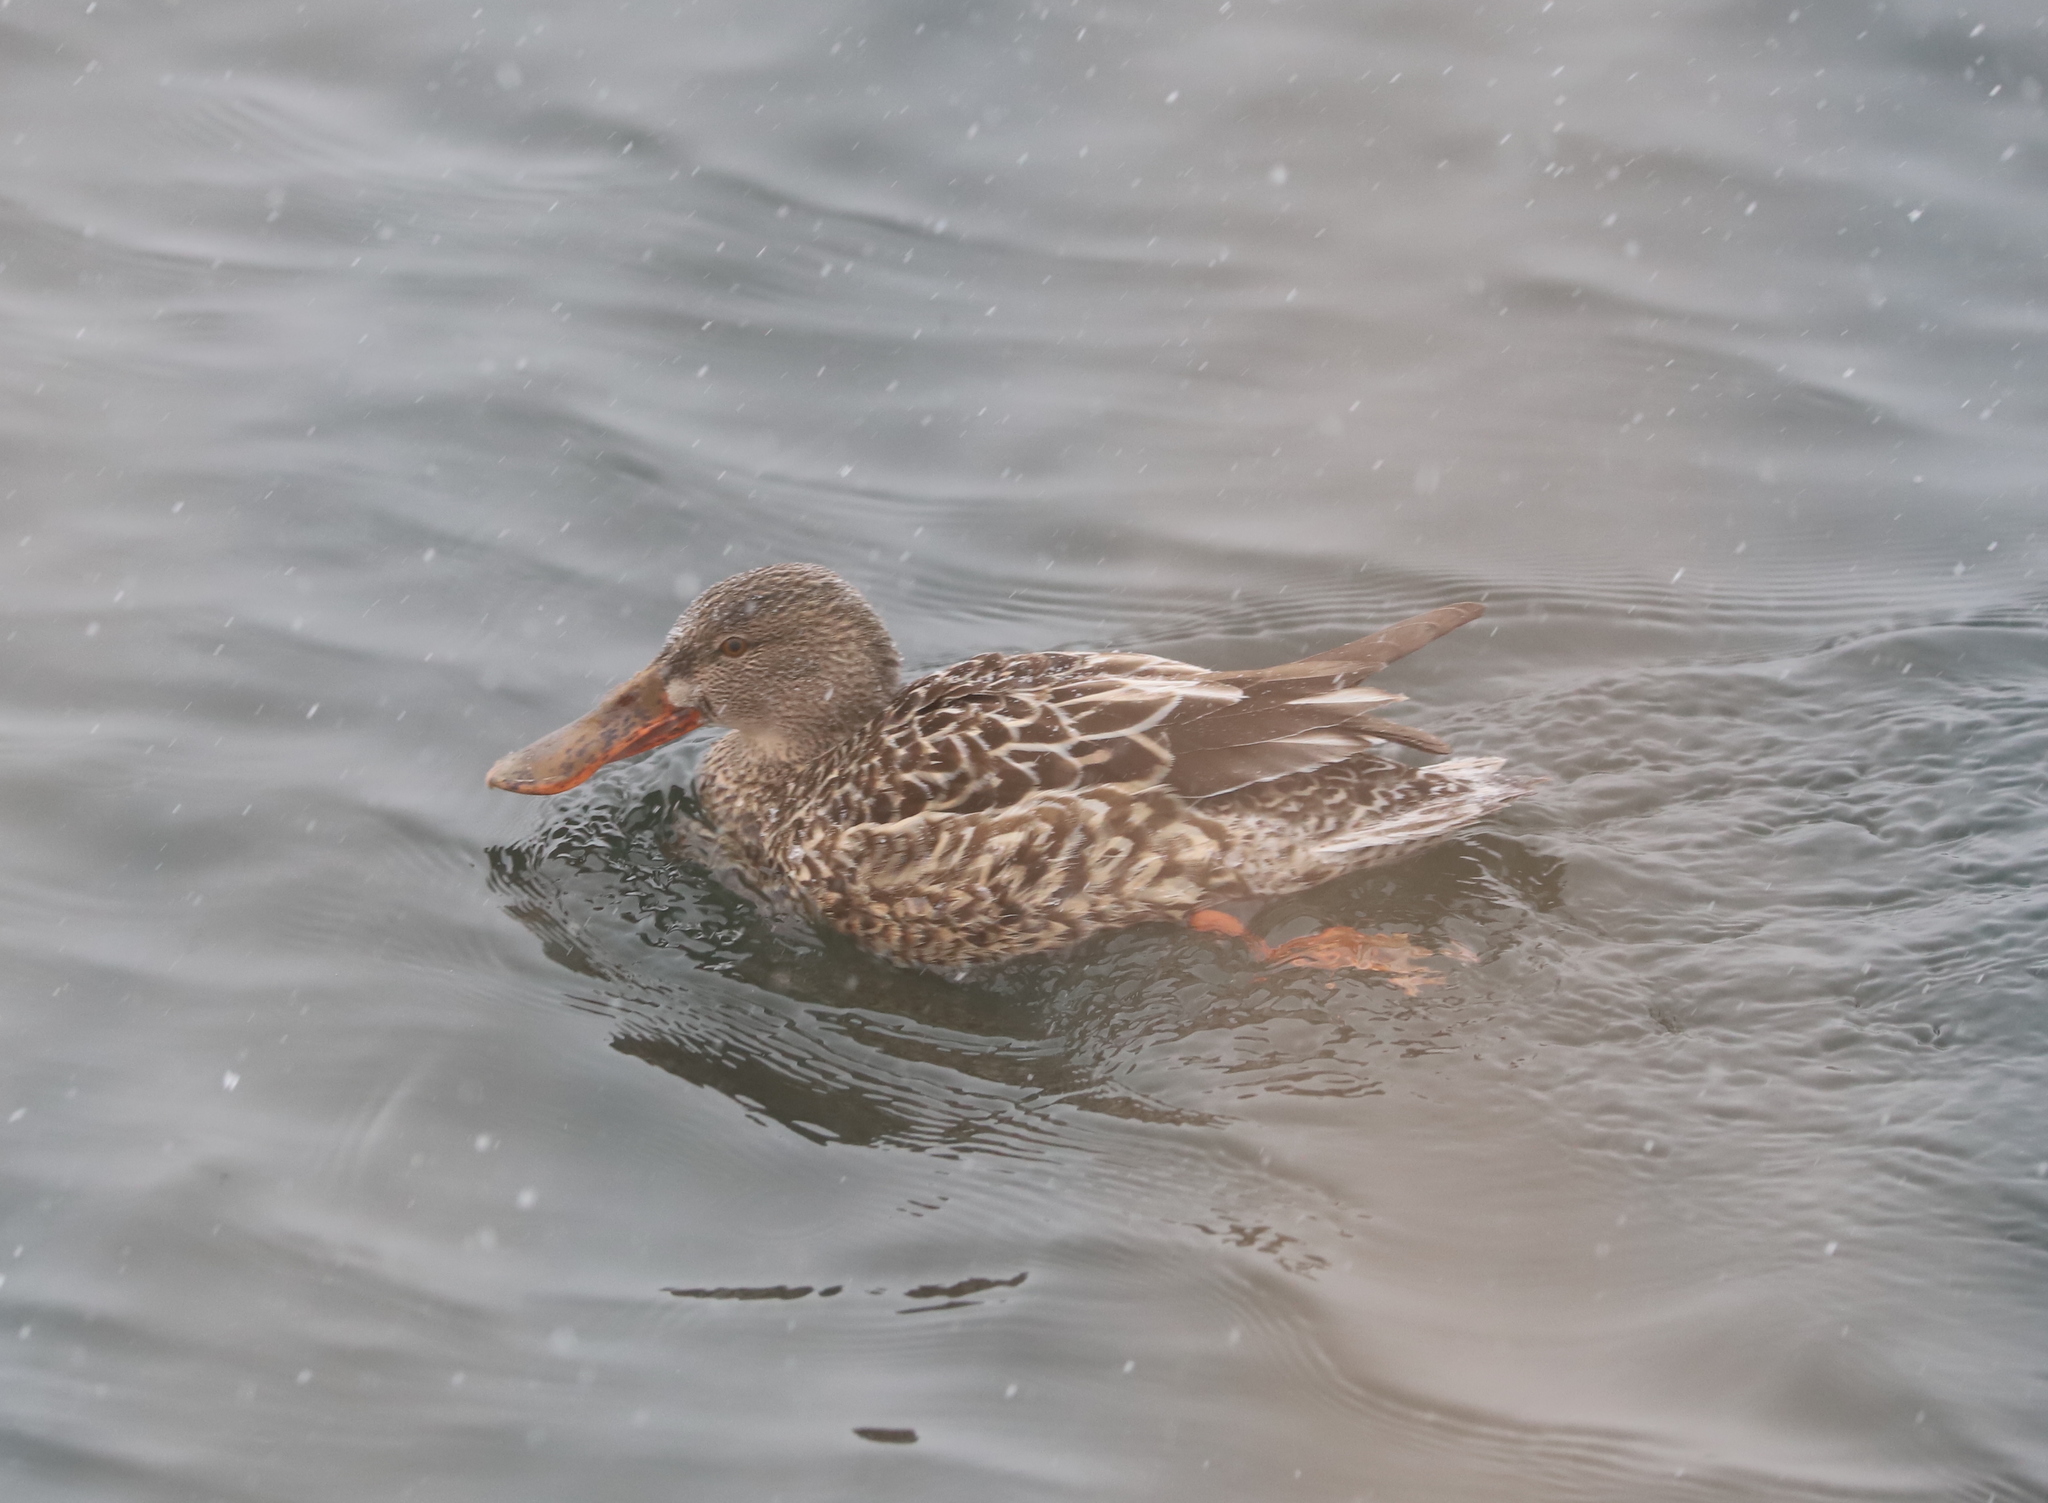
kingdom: Animalia
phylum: Chordata
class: Aves
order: Anseriformes
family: Anatidae
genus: Spatula
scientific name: Spatula clypeata
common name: Northern shoveler
